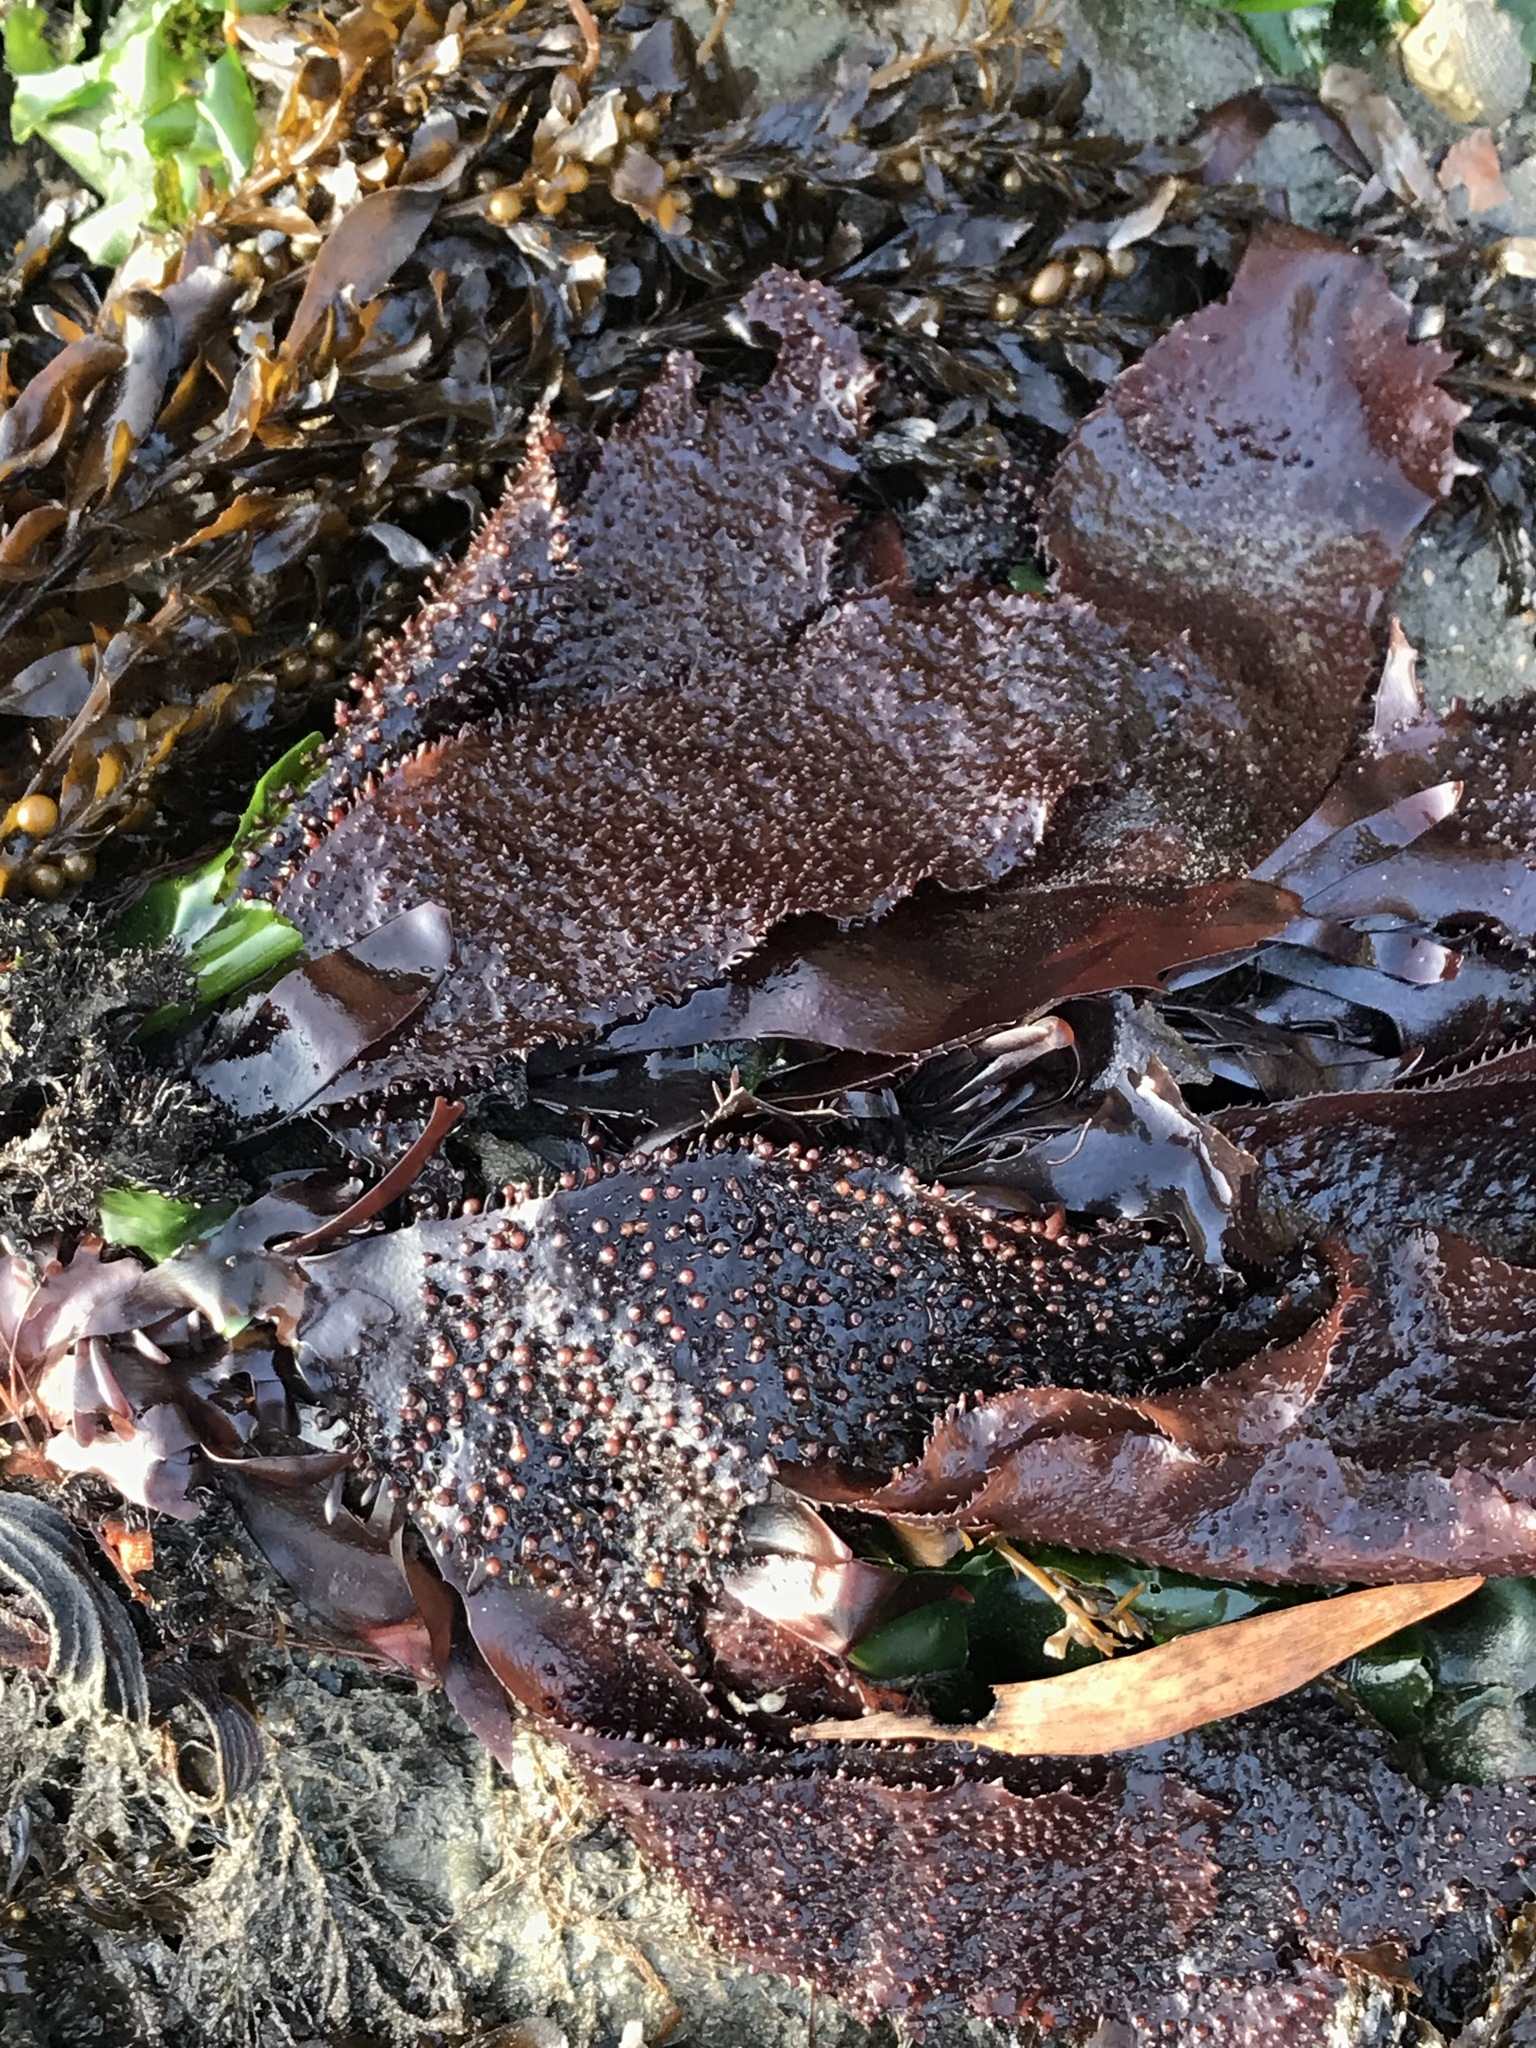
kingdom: Plantae
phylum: Rhodophyta
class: Florideophyceae
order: Gigartinales
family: Phyllophoraceae
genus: Mastocarpus
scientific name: Mastocarpus papillatus
